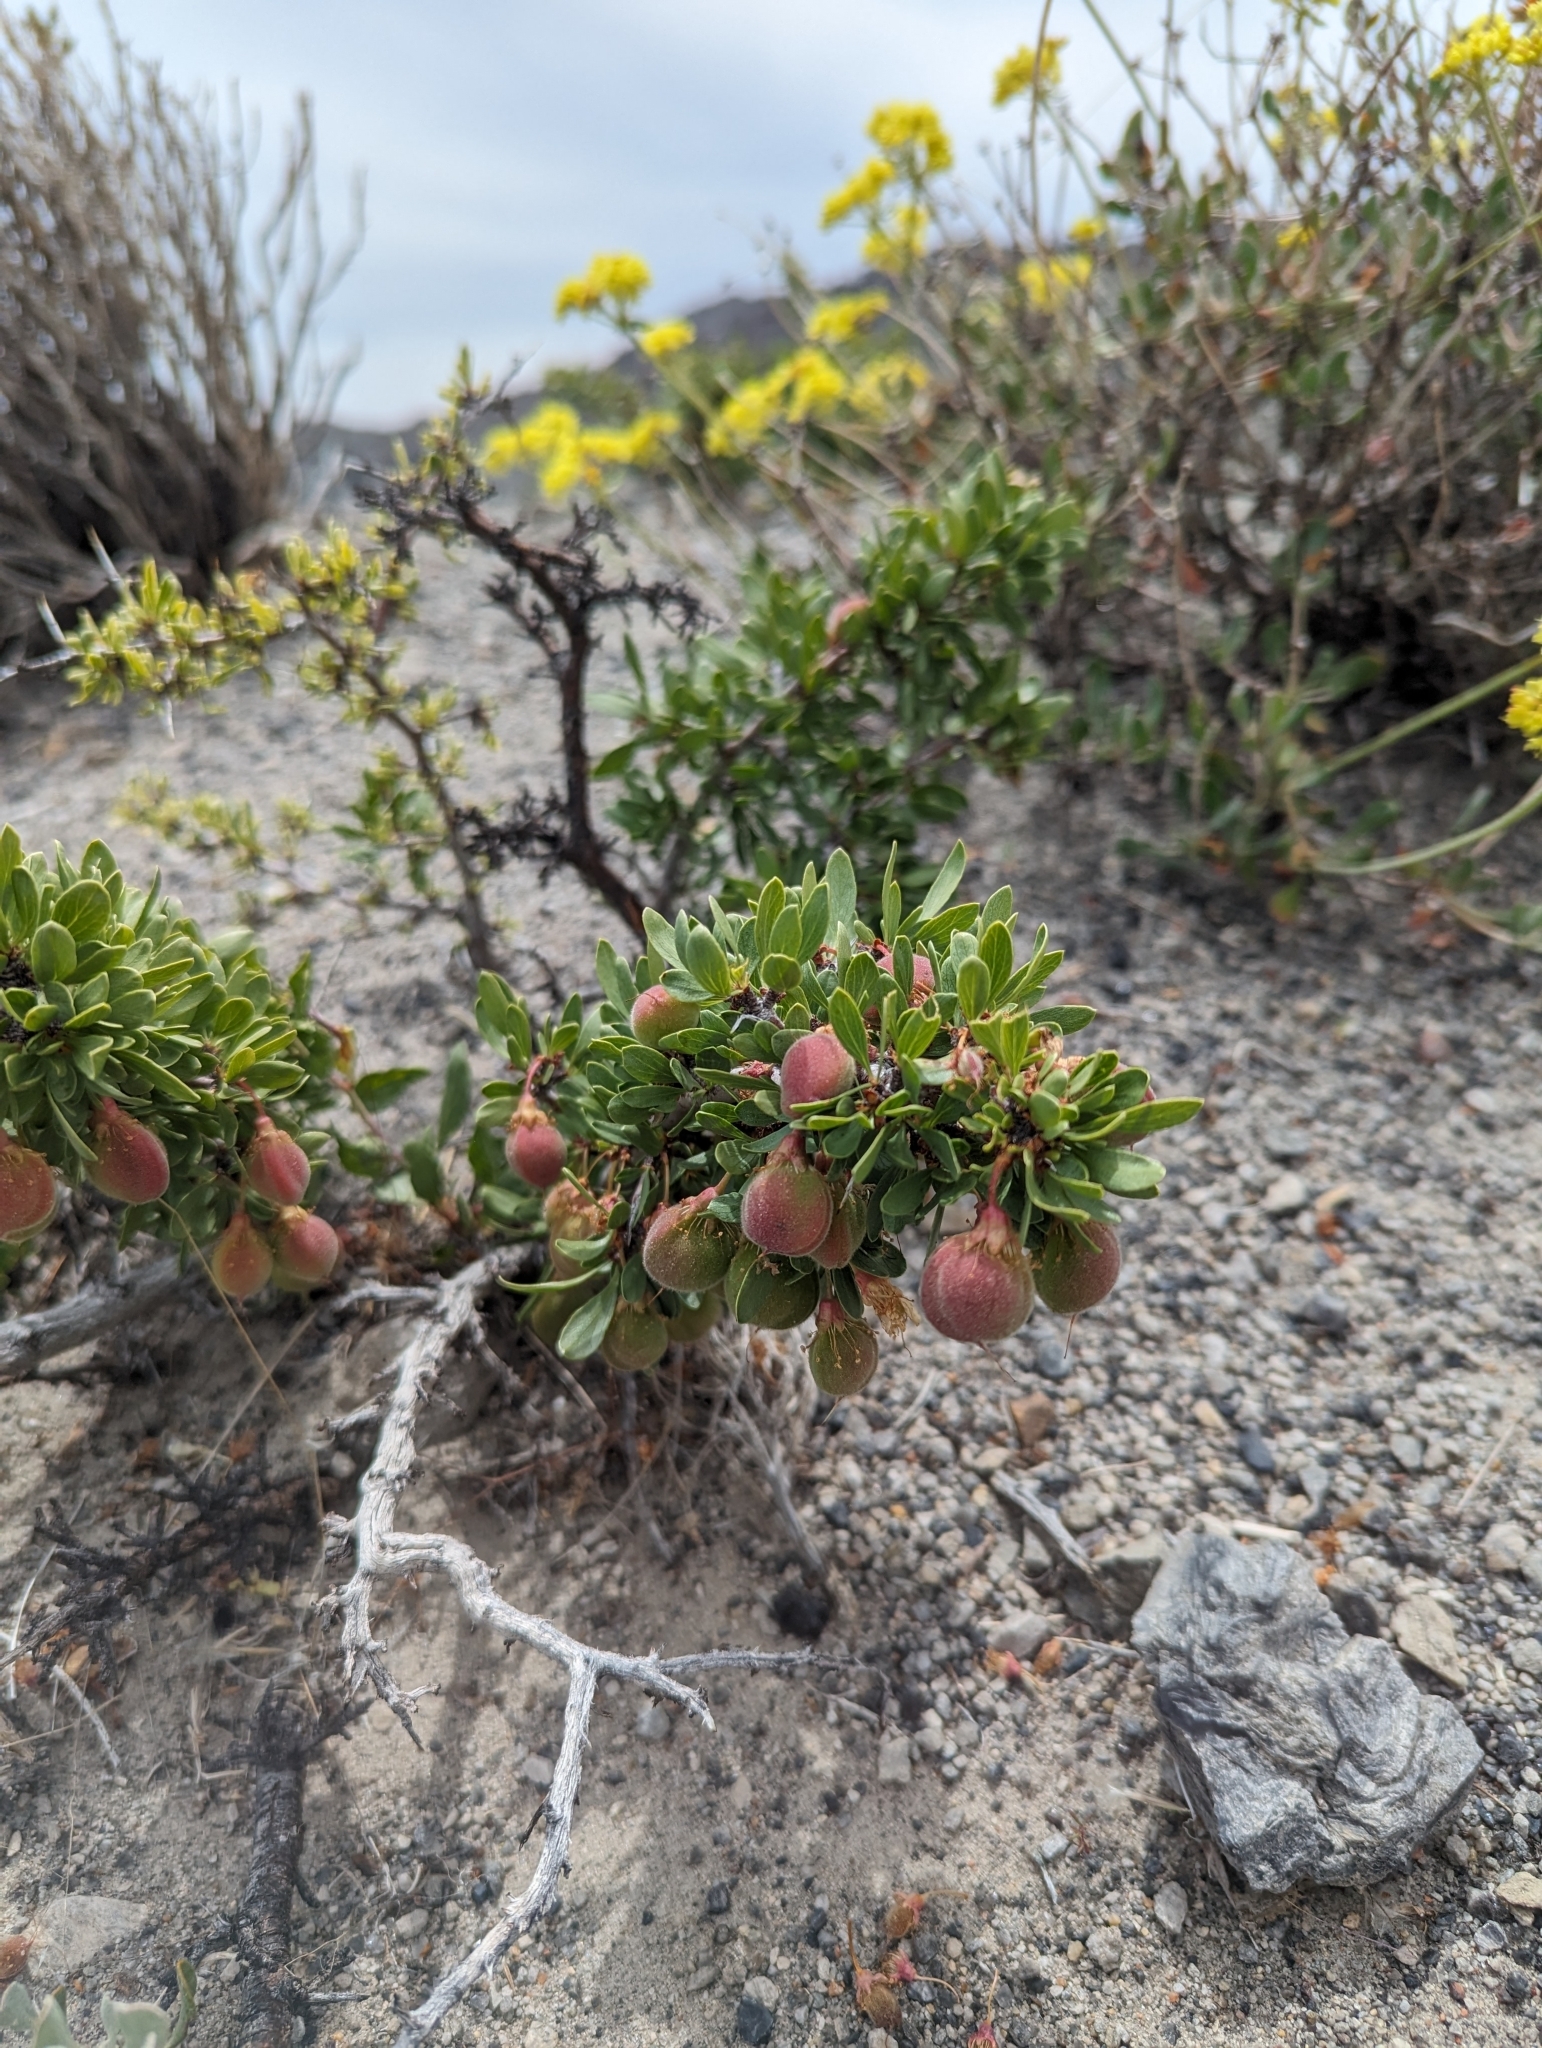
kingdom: Plantae
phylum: Tracheophyta
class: Magnoliopsida
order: Rosales
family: Rosaceae
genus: Prunus
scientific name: Prunus andersonii
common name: Desert peach
